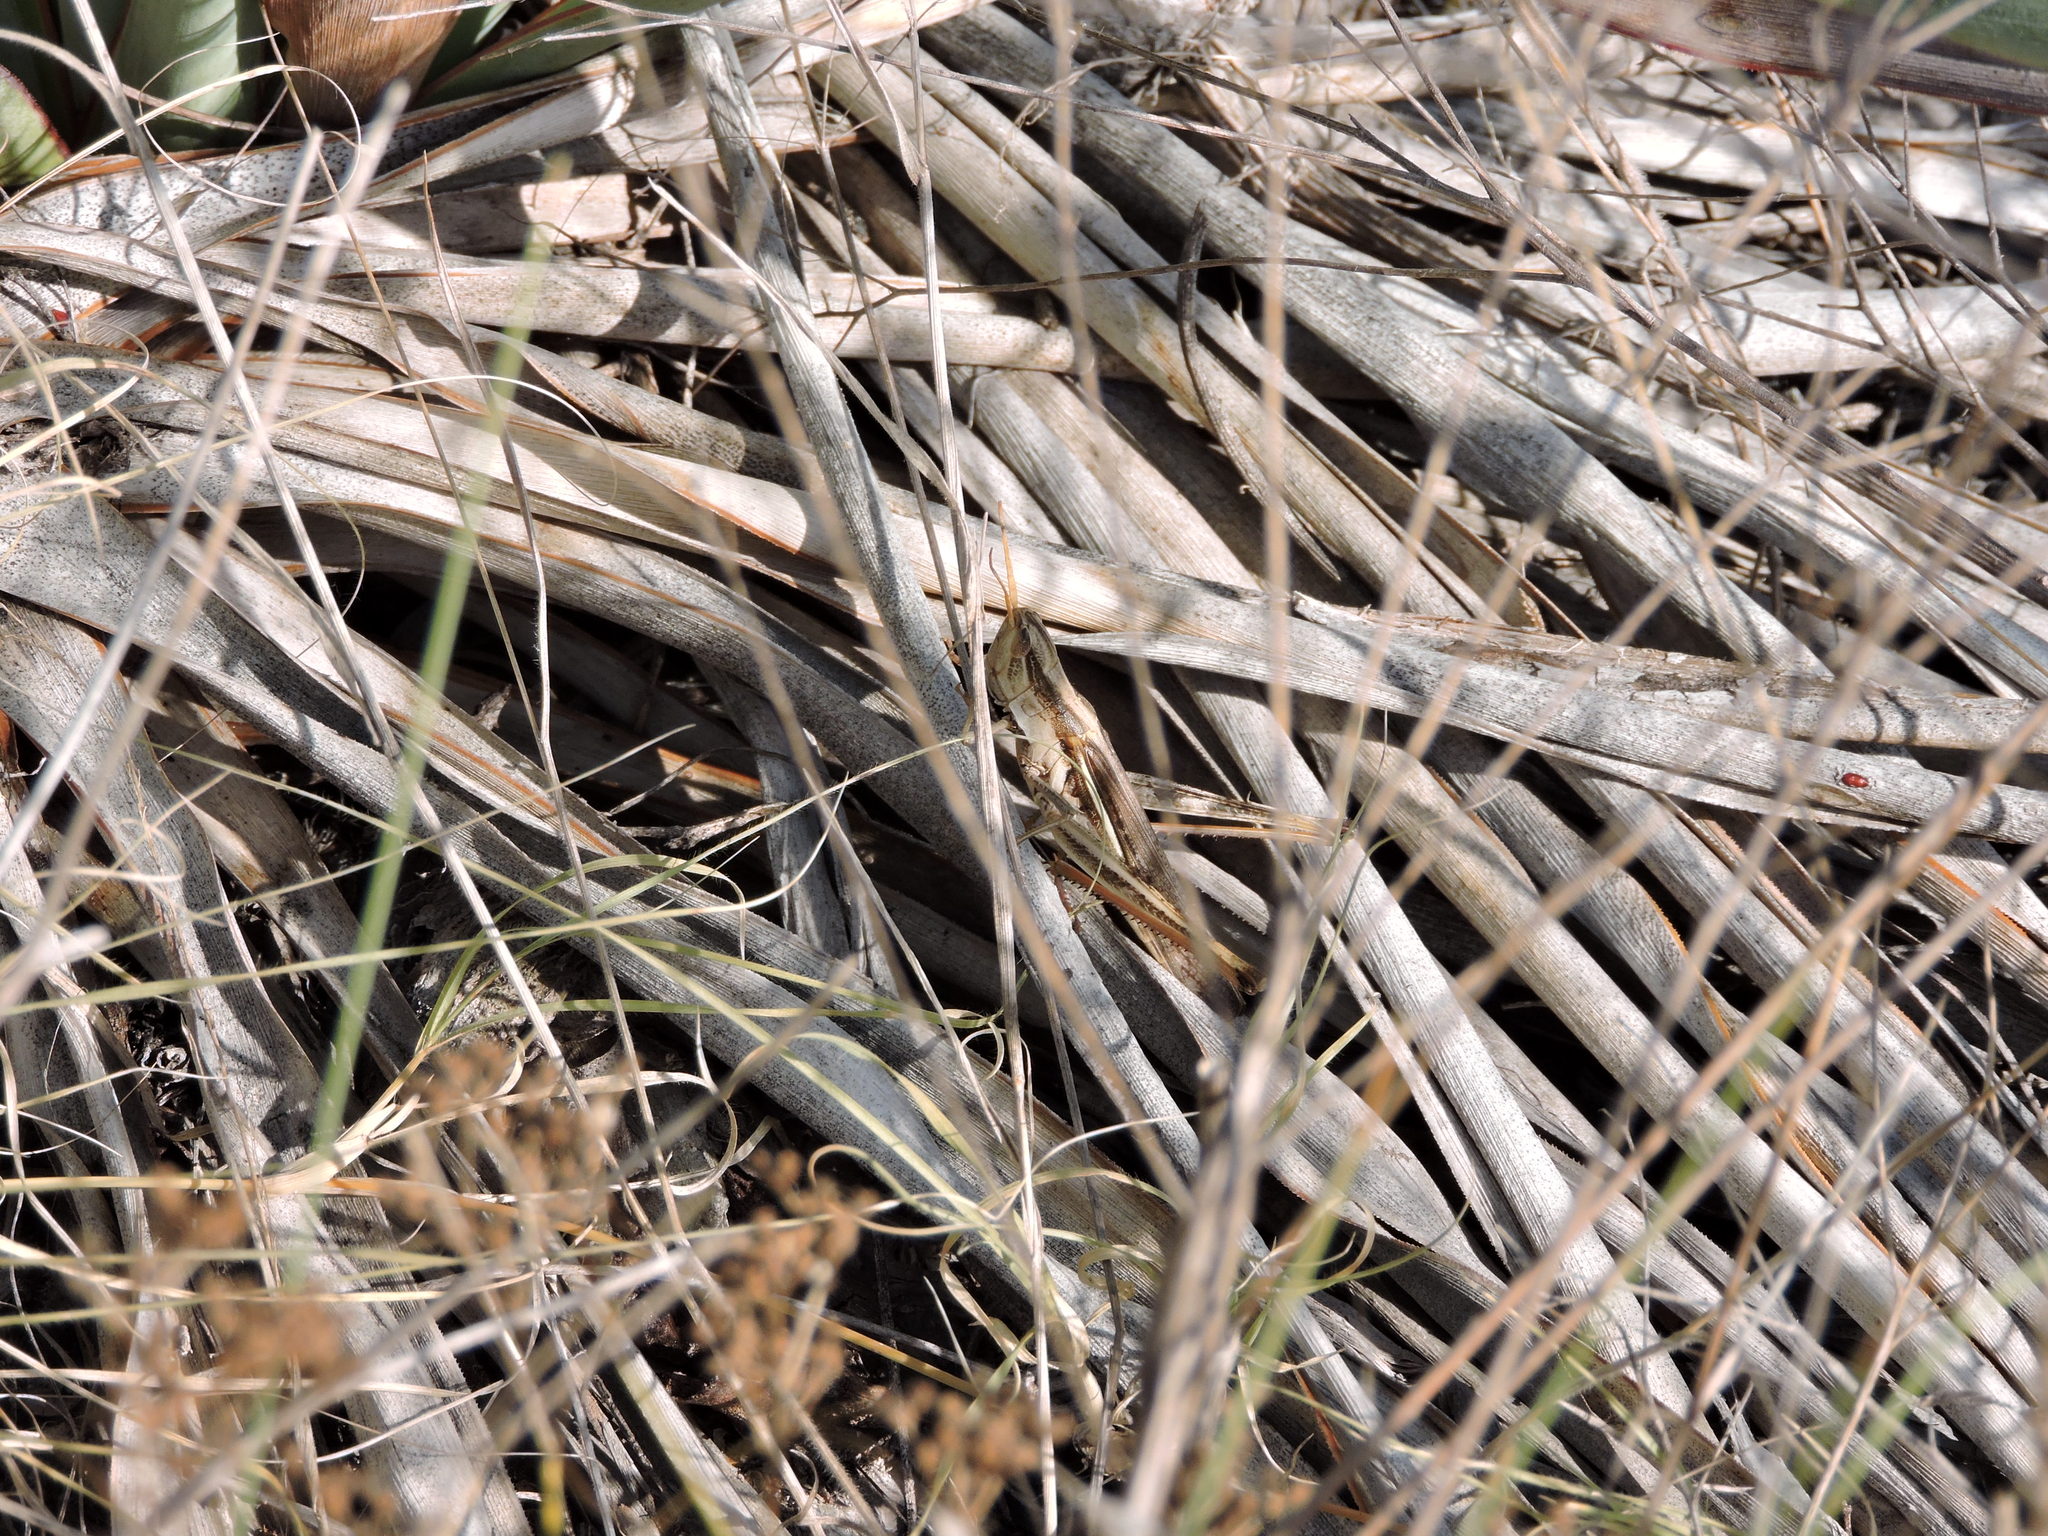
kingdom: Animalia
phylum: Arthropoda
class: Insecta
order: Orthoptera
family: Acrididae
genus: Mermiria
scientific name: Mermiria bivittata
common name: Two-striped mermiria grasshopper
